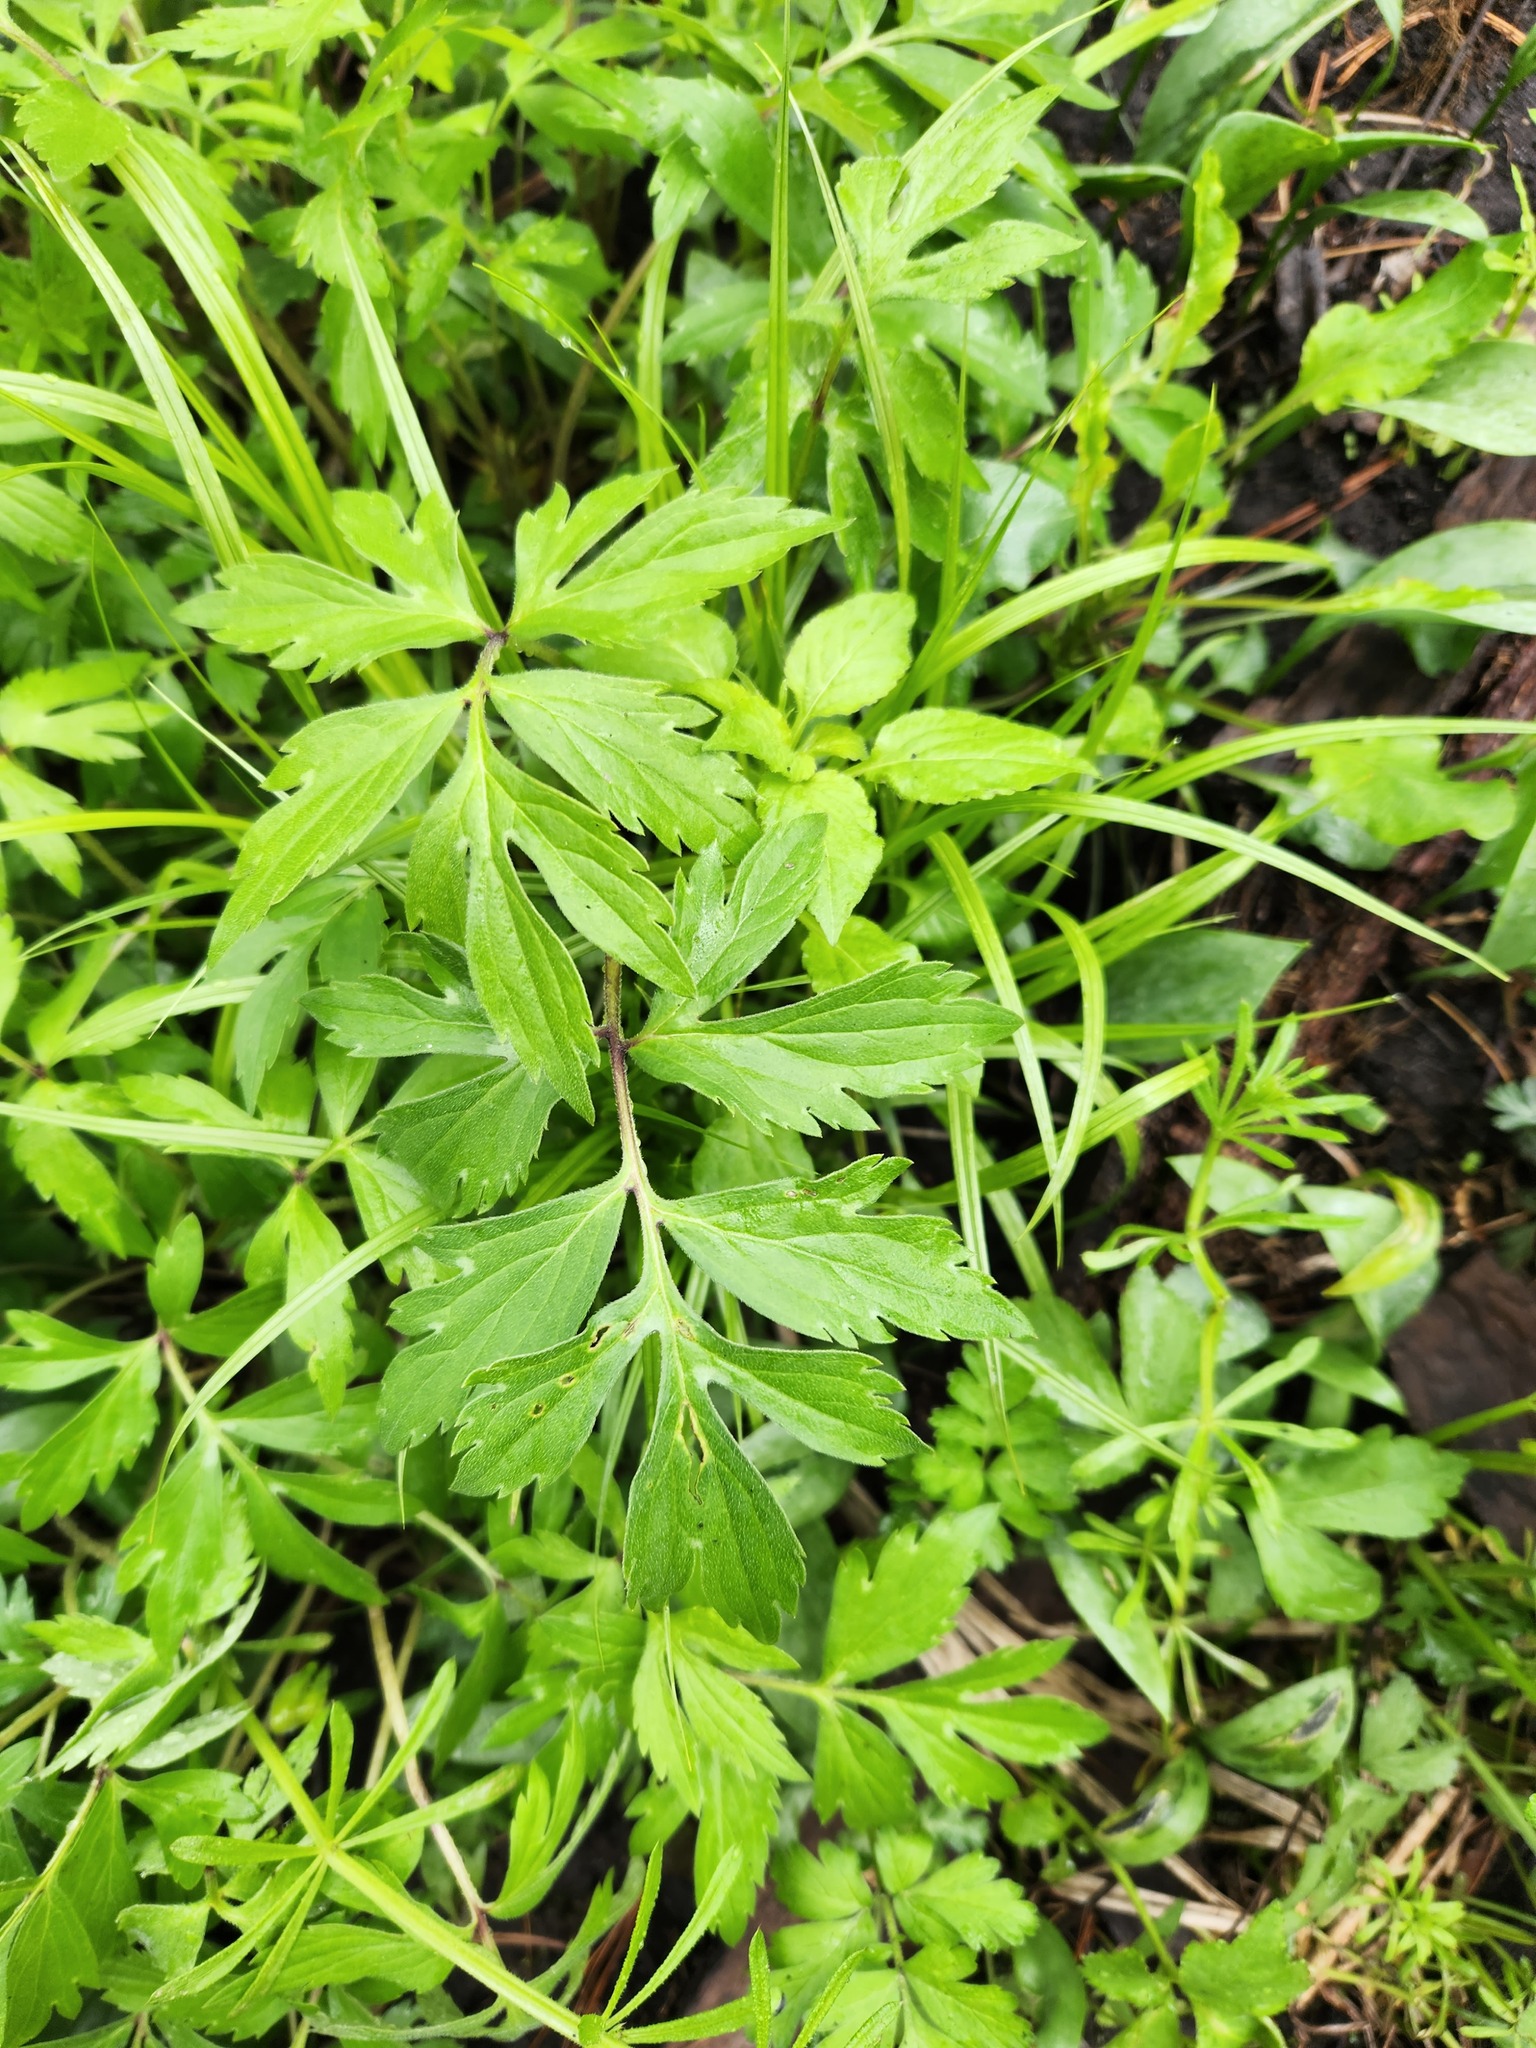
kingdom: Plantae
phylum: Tracheophyta
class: Magnoliopsida
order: Boraginales
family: Hydrophyllaceae
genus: Hydrophyllum
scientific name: Hydrophyllum virginianum
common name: Virginia waterleaf
